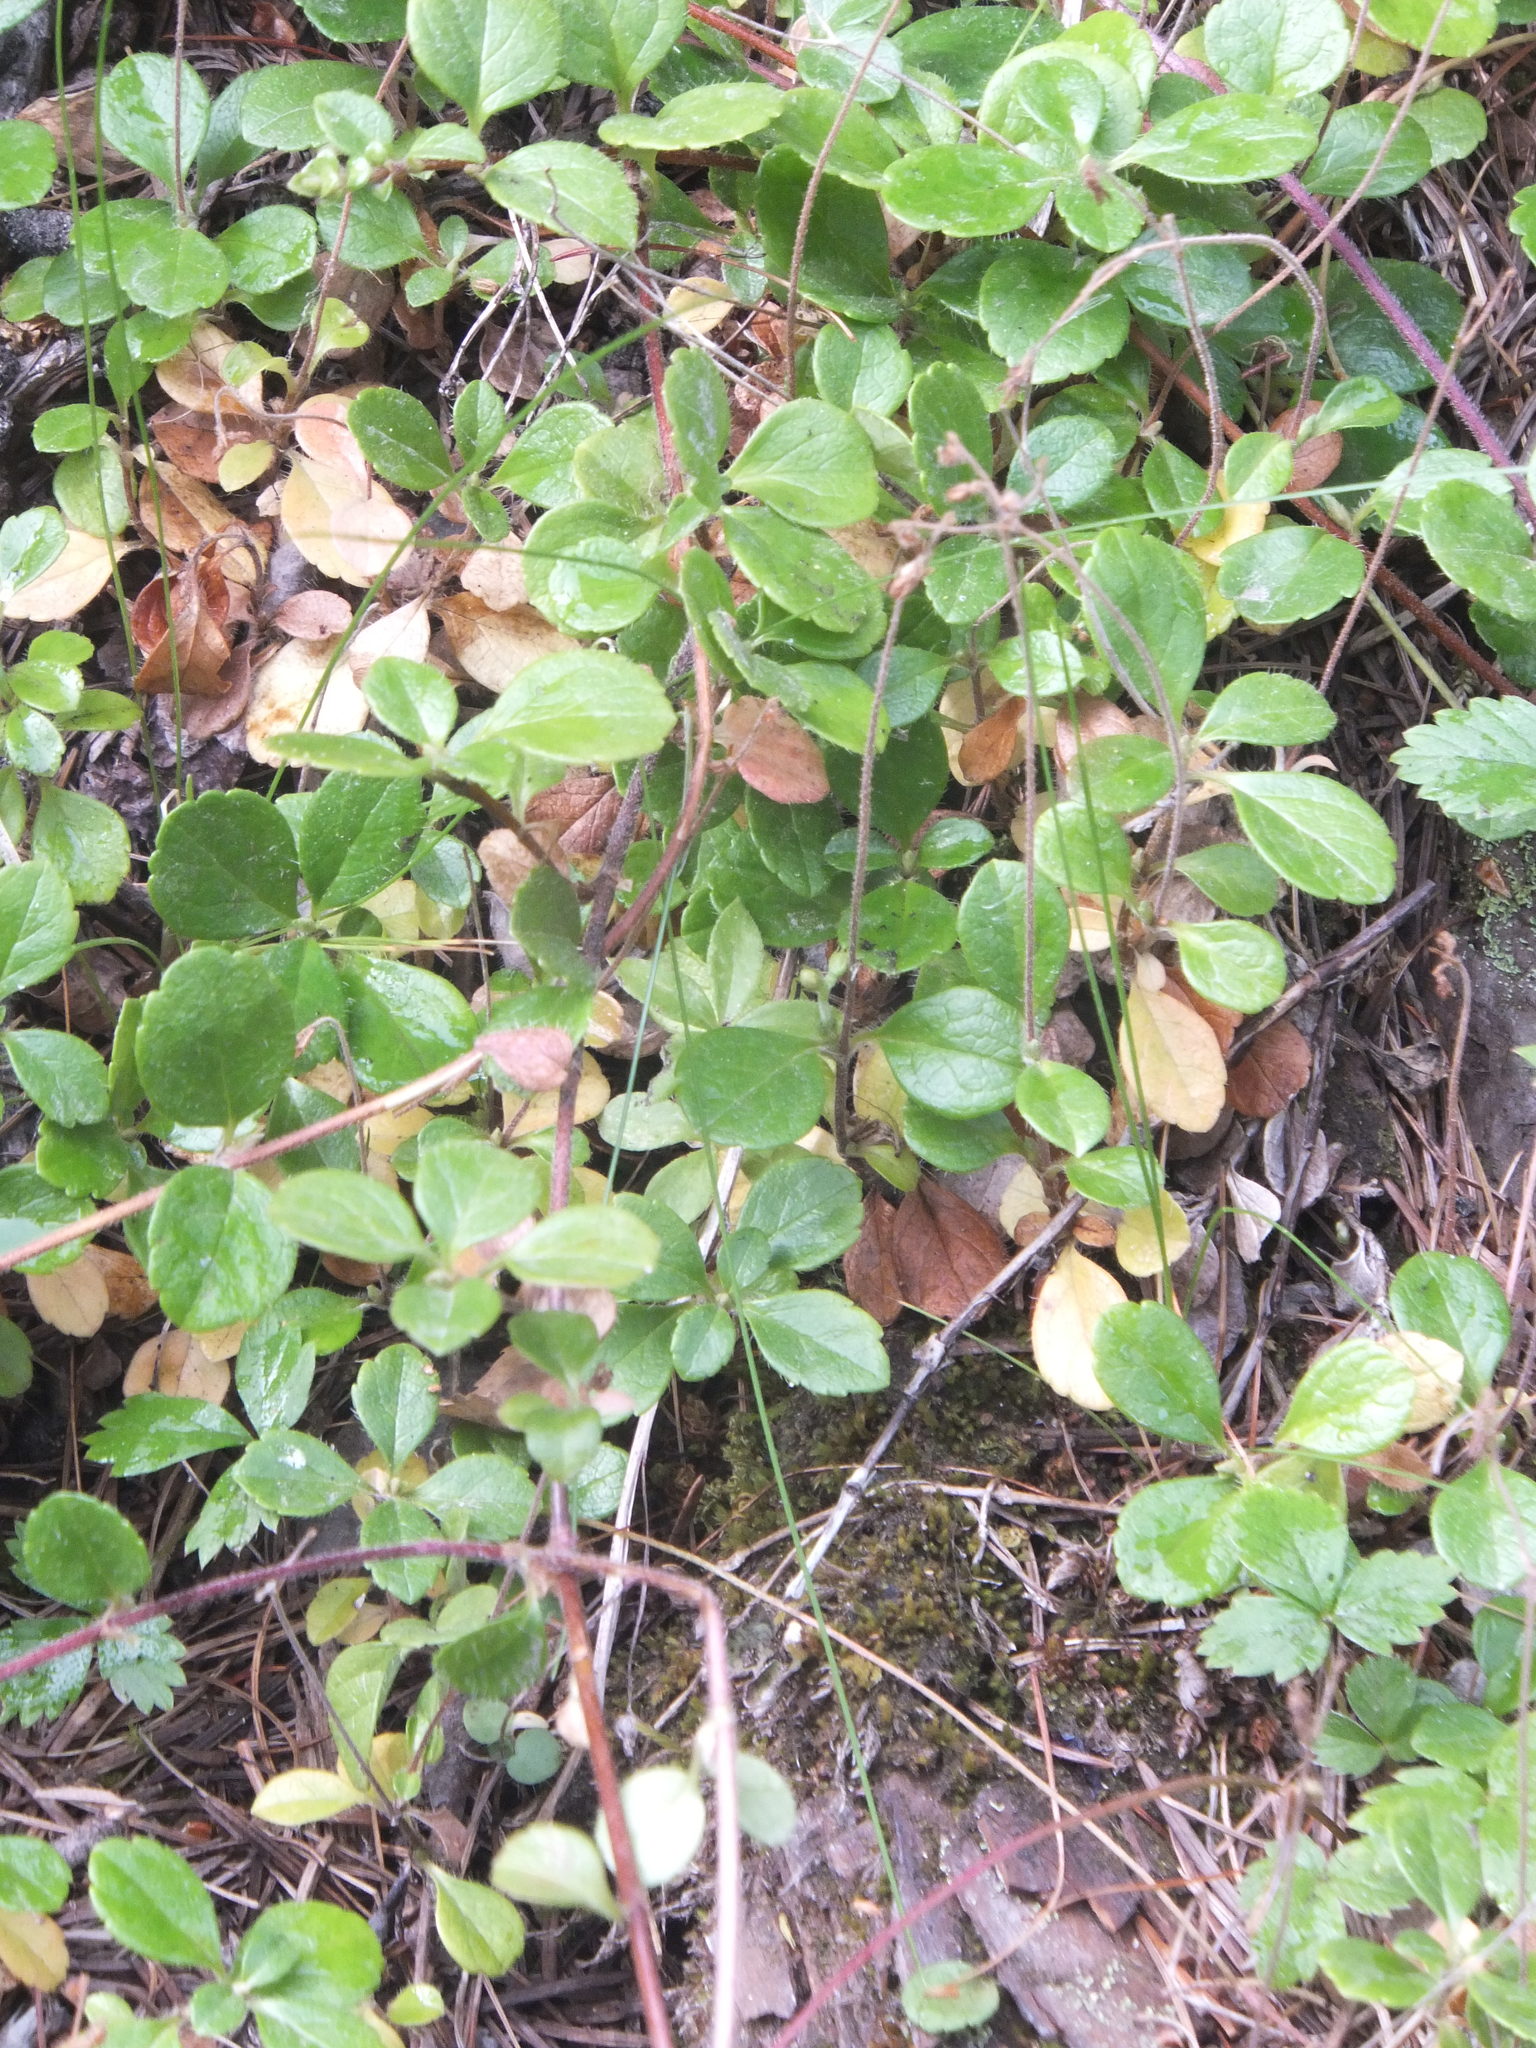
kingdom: Plantae
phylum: Tracheophyta
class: Magnoliopsida
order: Dipsacales
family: Caprifoliaceae
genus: Linnaea
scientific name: Linnaea borealis
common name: Twinflower
